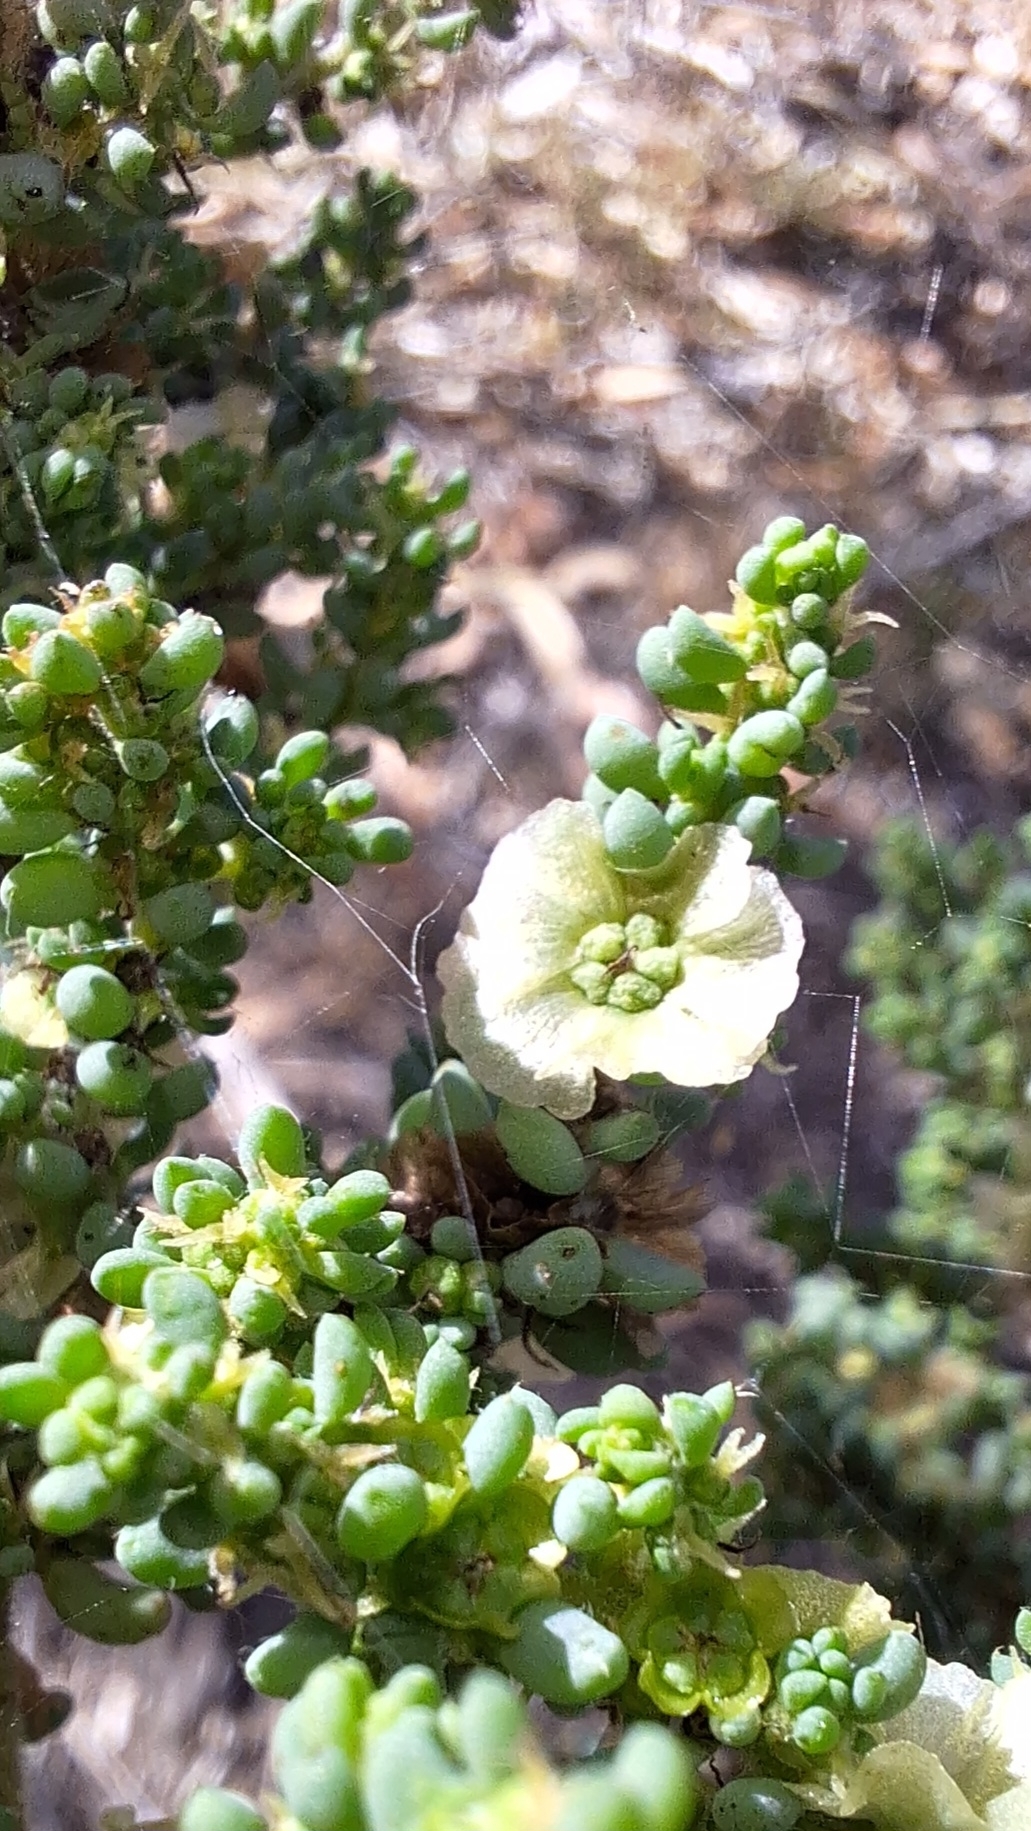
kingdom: Plantae
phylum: Tracheophyta
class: Magnoliopsida
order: Caryophyllales
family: Amaranthaceae
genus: Maireana
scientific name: Maireana brevifolia
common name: Eastern cottonbush
